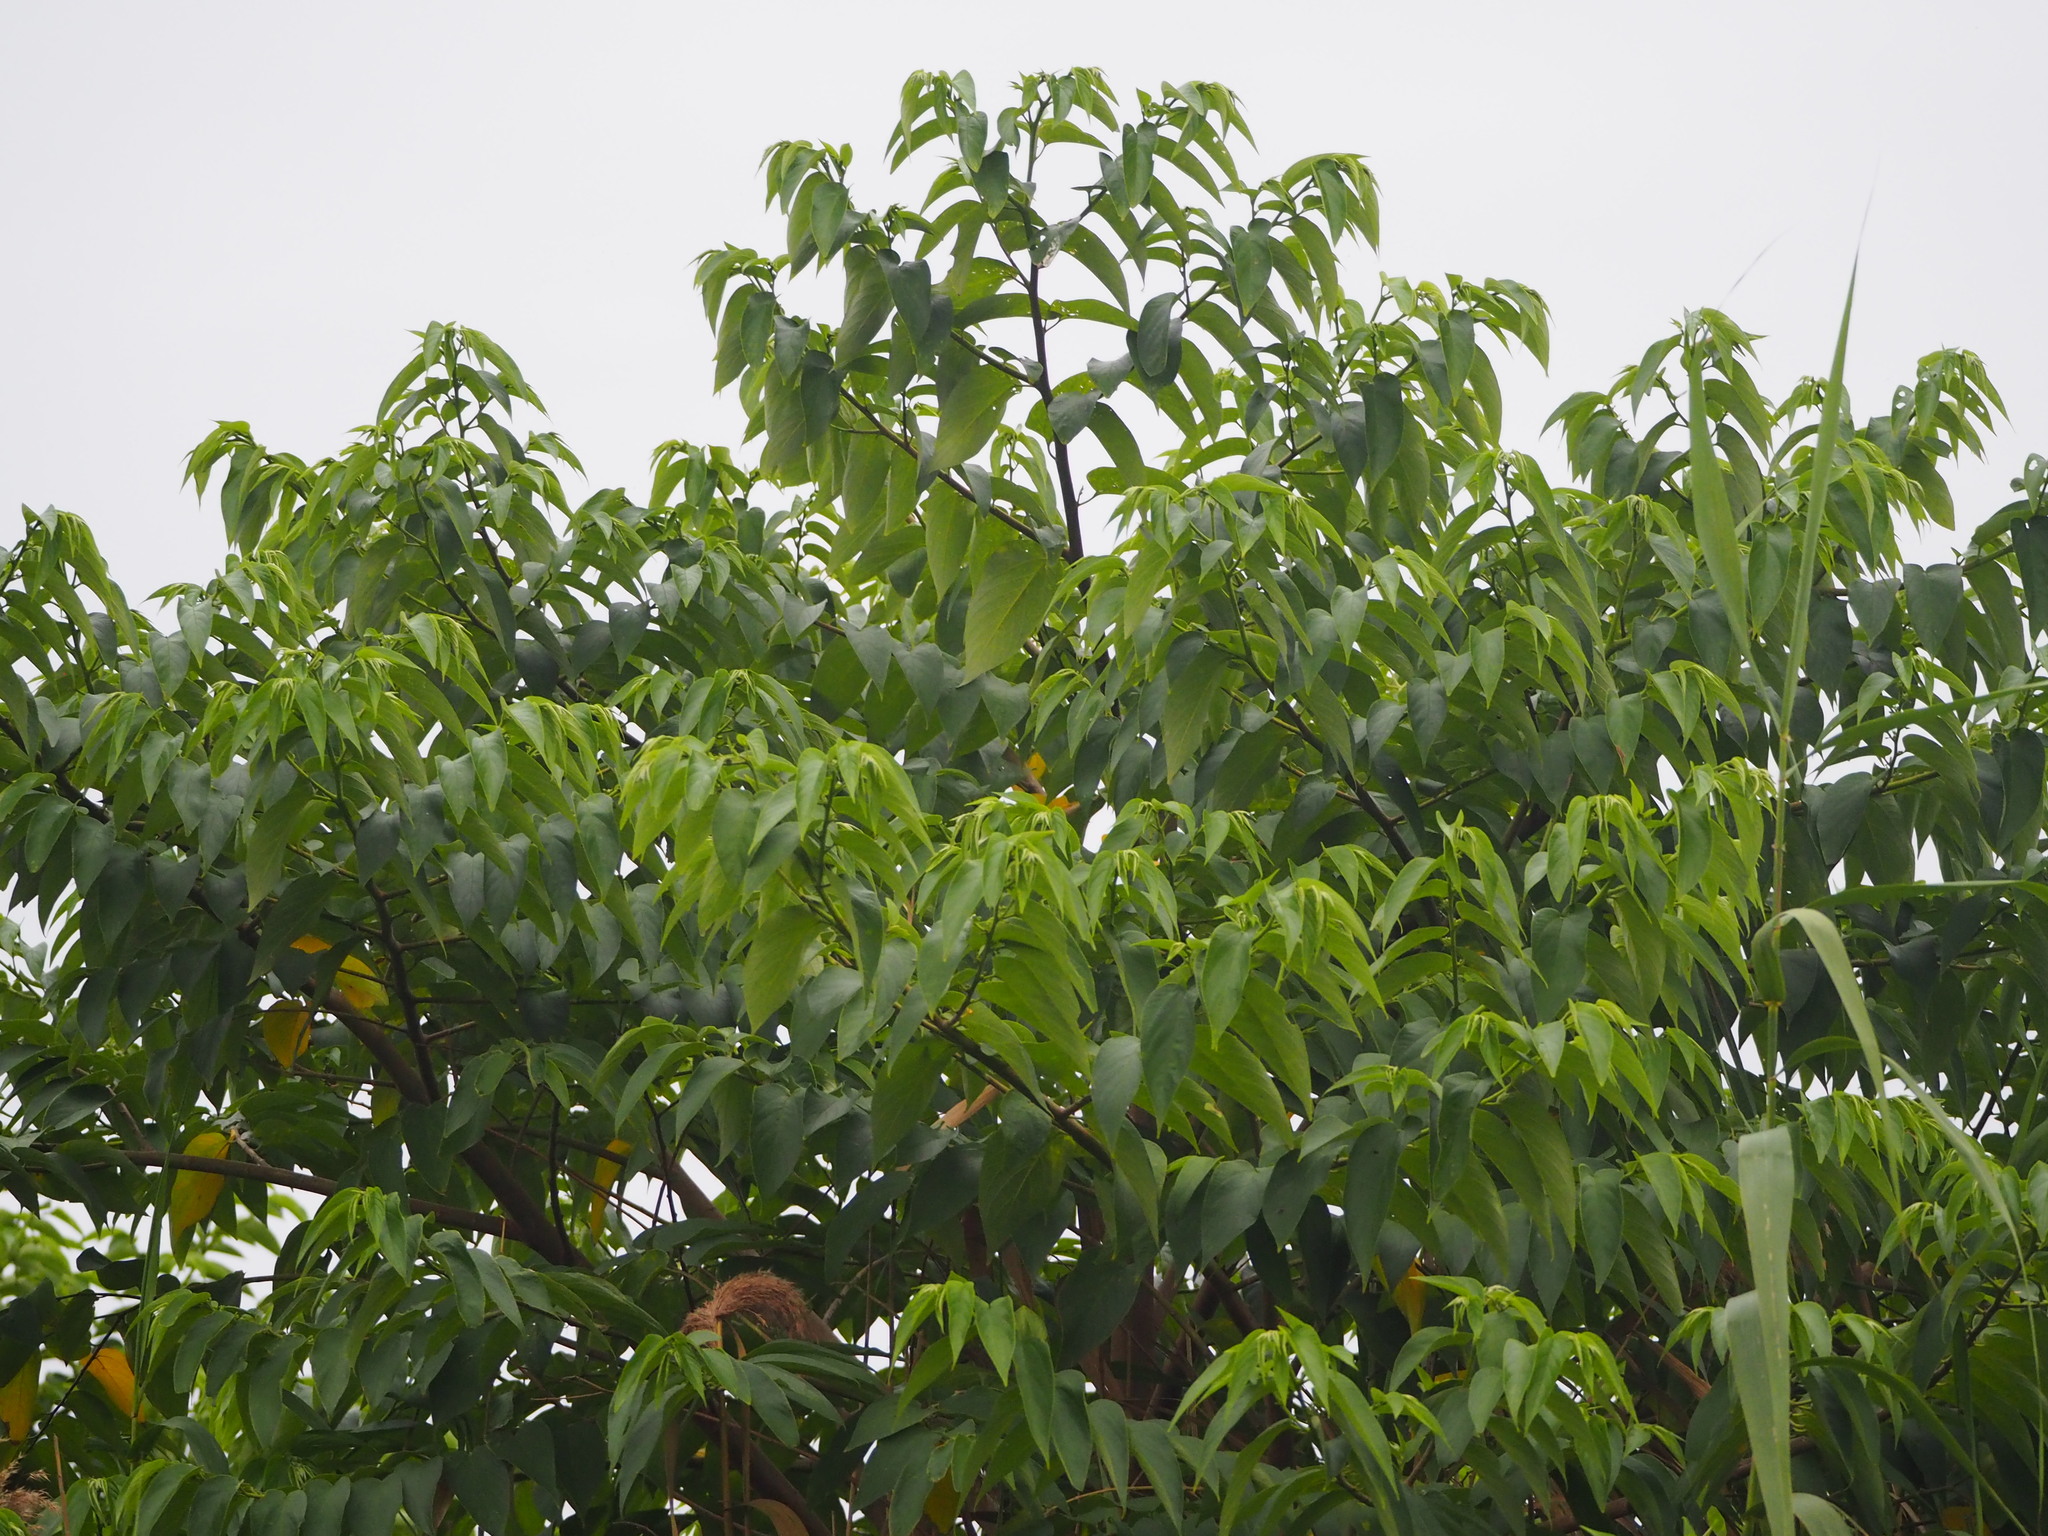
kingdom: Plantae
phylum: Tracheophyta
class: Magnoliopsida
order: Rosales
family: Cannabaceae
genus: Trema
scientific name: Trema orientale
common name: Indian charcoal tree
